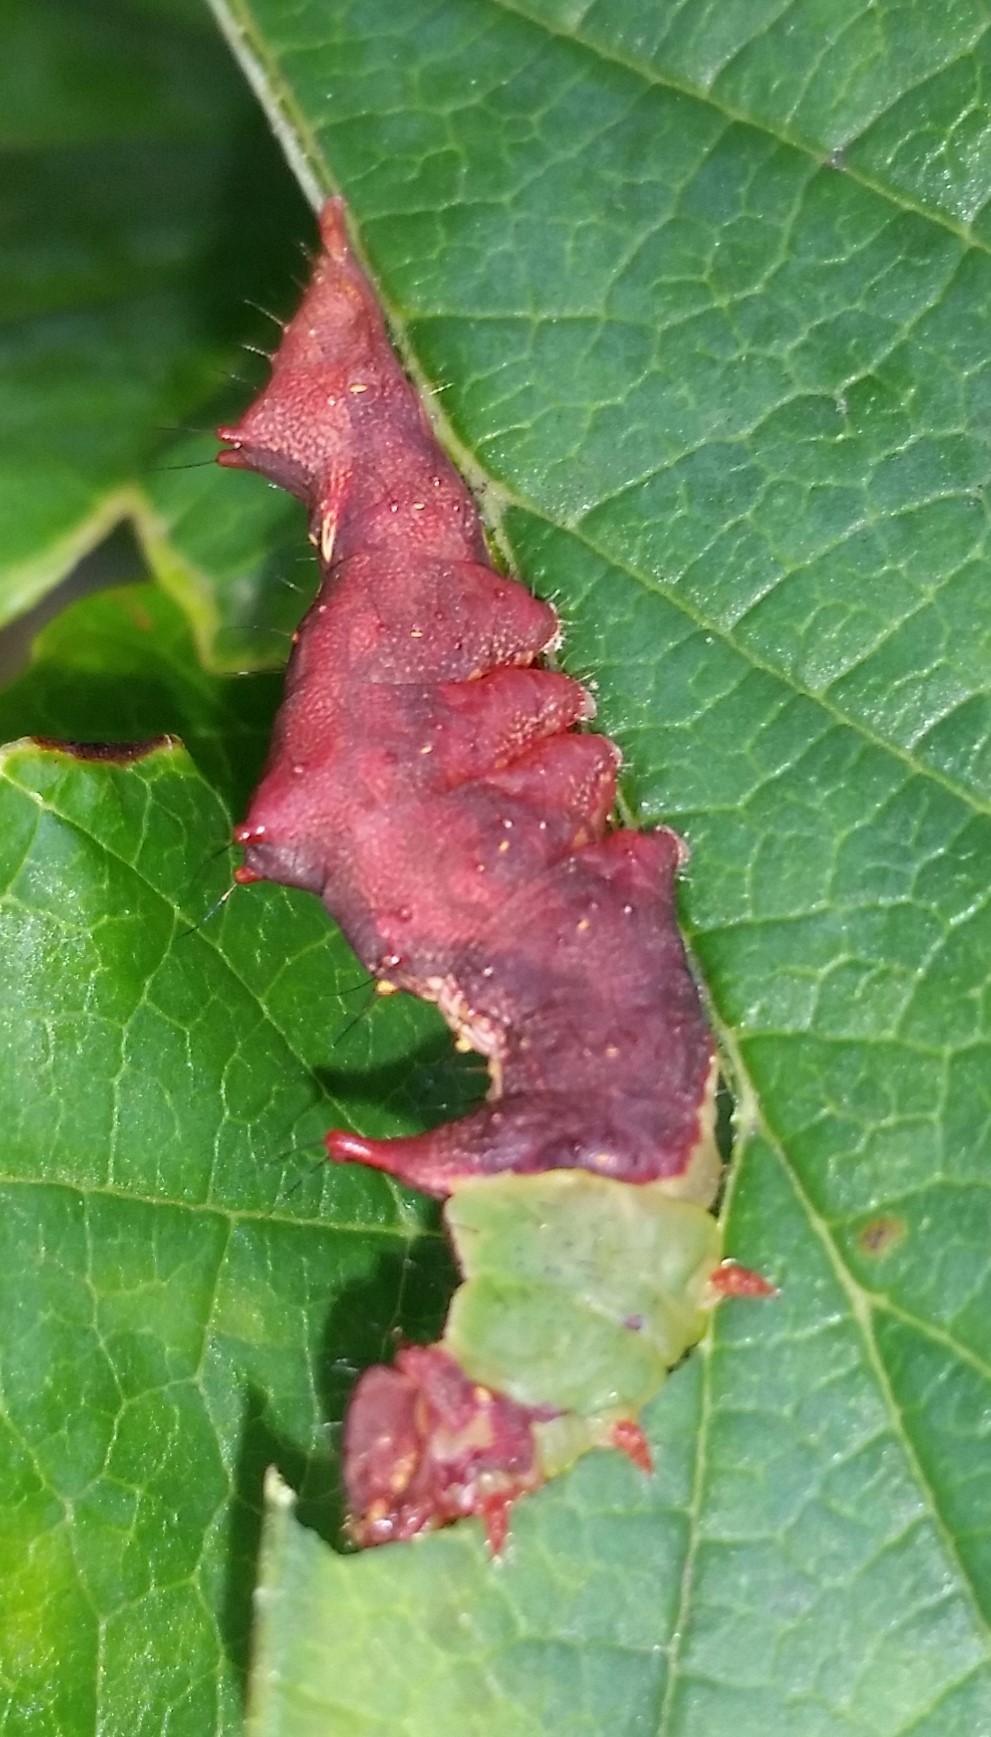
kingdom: Animalia
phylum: Arthropoda
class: Insecta
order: Lepidoptera
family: Notodontidae
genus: Schizura
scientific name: Schizura ipomaeae
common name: Morning-glory prominent
